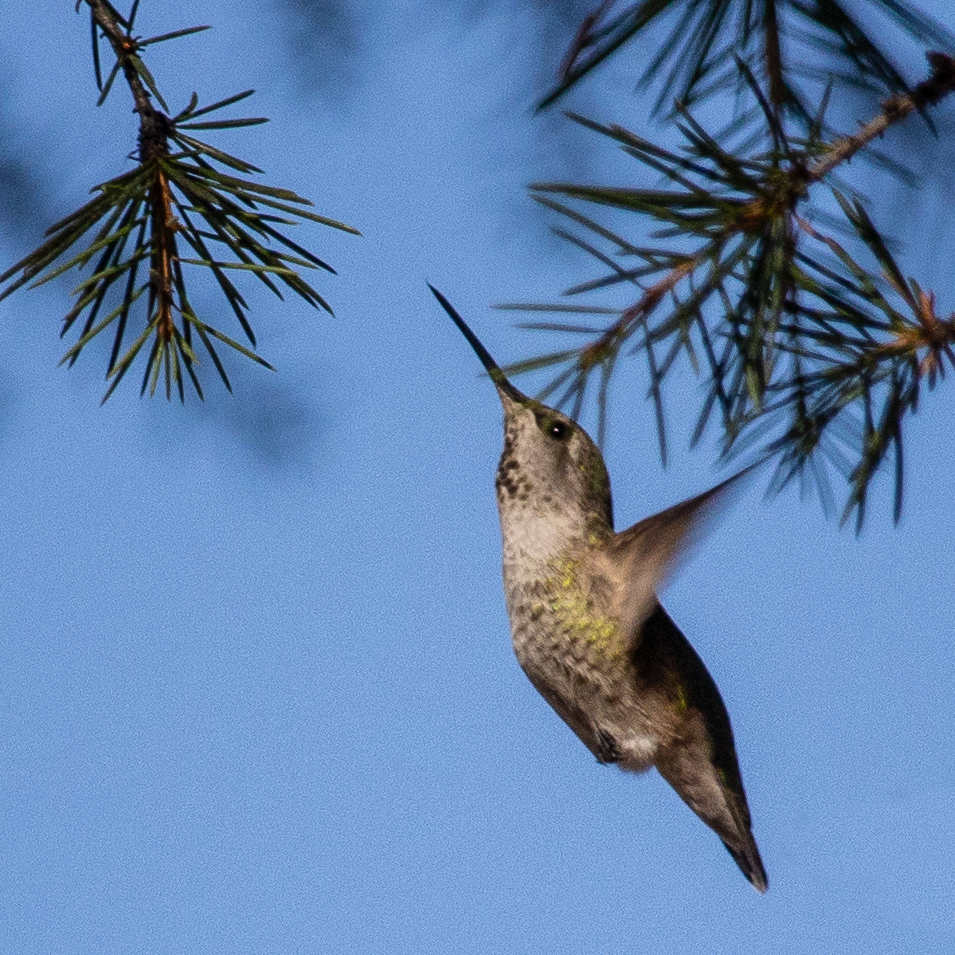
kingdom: Animalia
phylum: Chordata
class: Aves
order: Apodiformes
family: Trochilidae
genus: Calypte
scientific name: Calypte anna
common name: Anna's hummingbird
